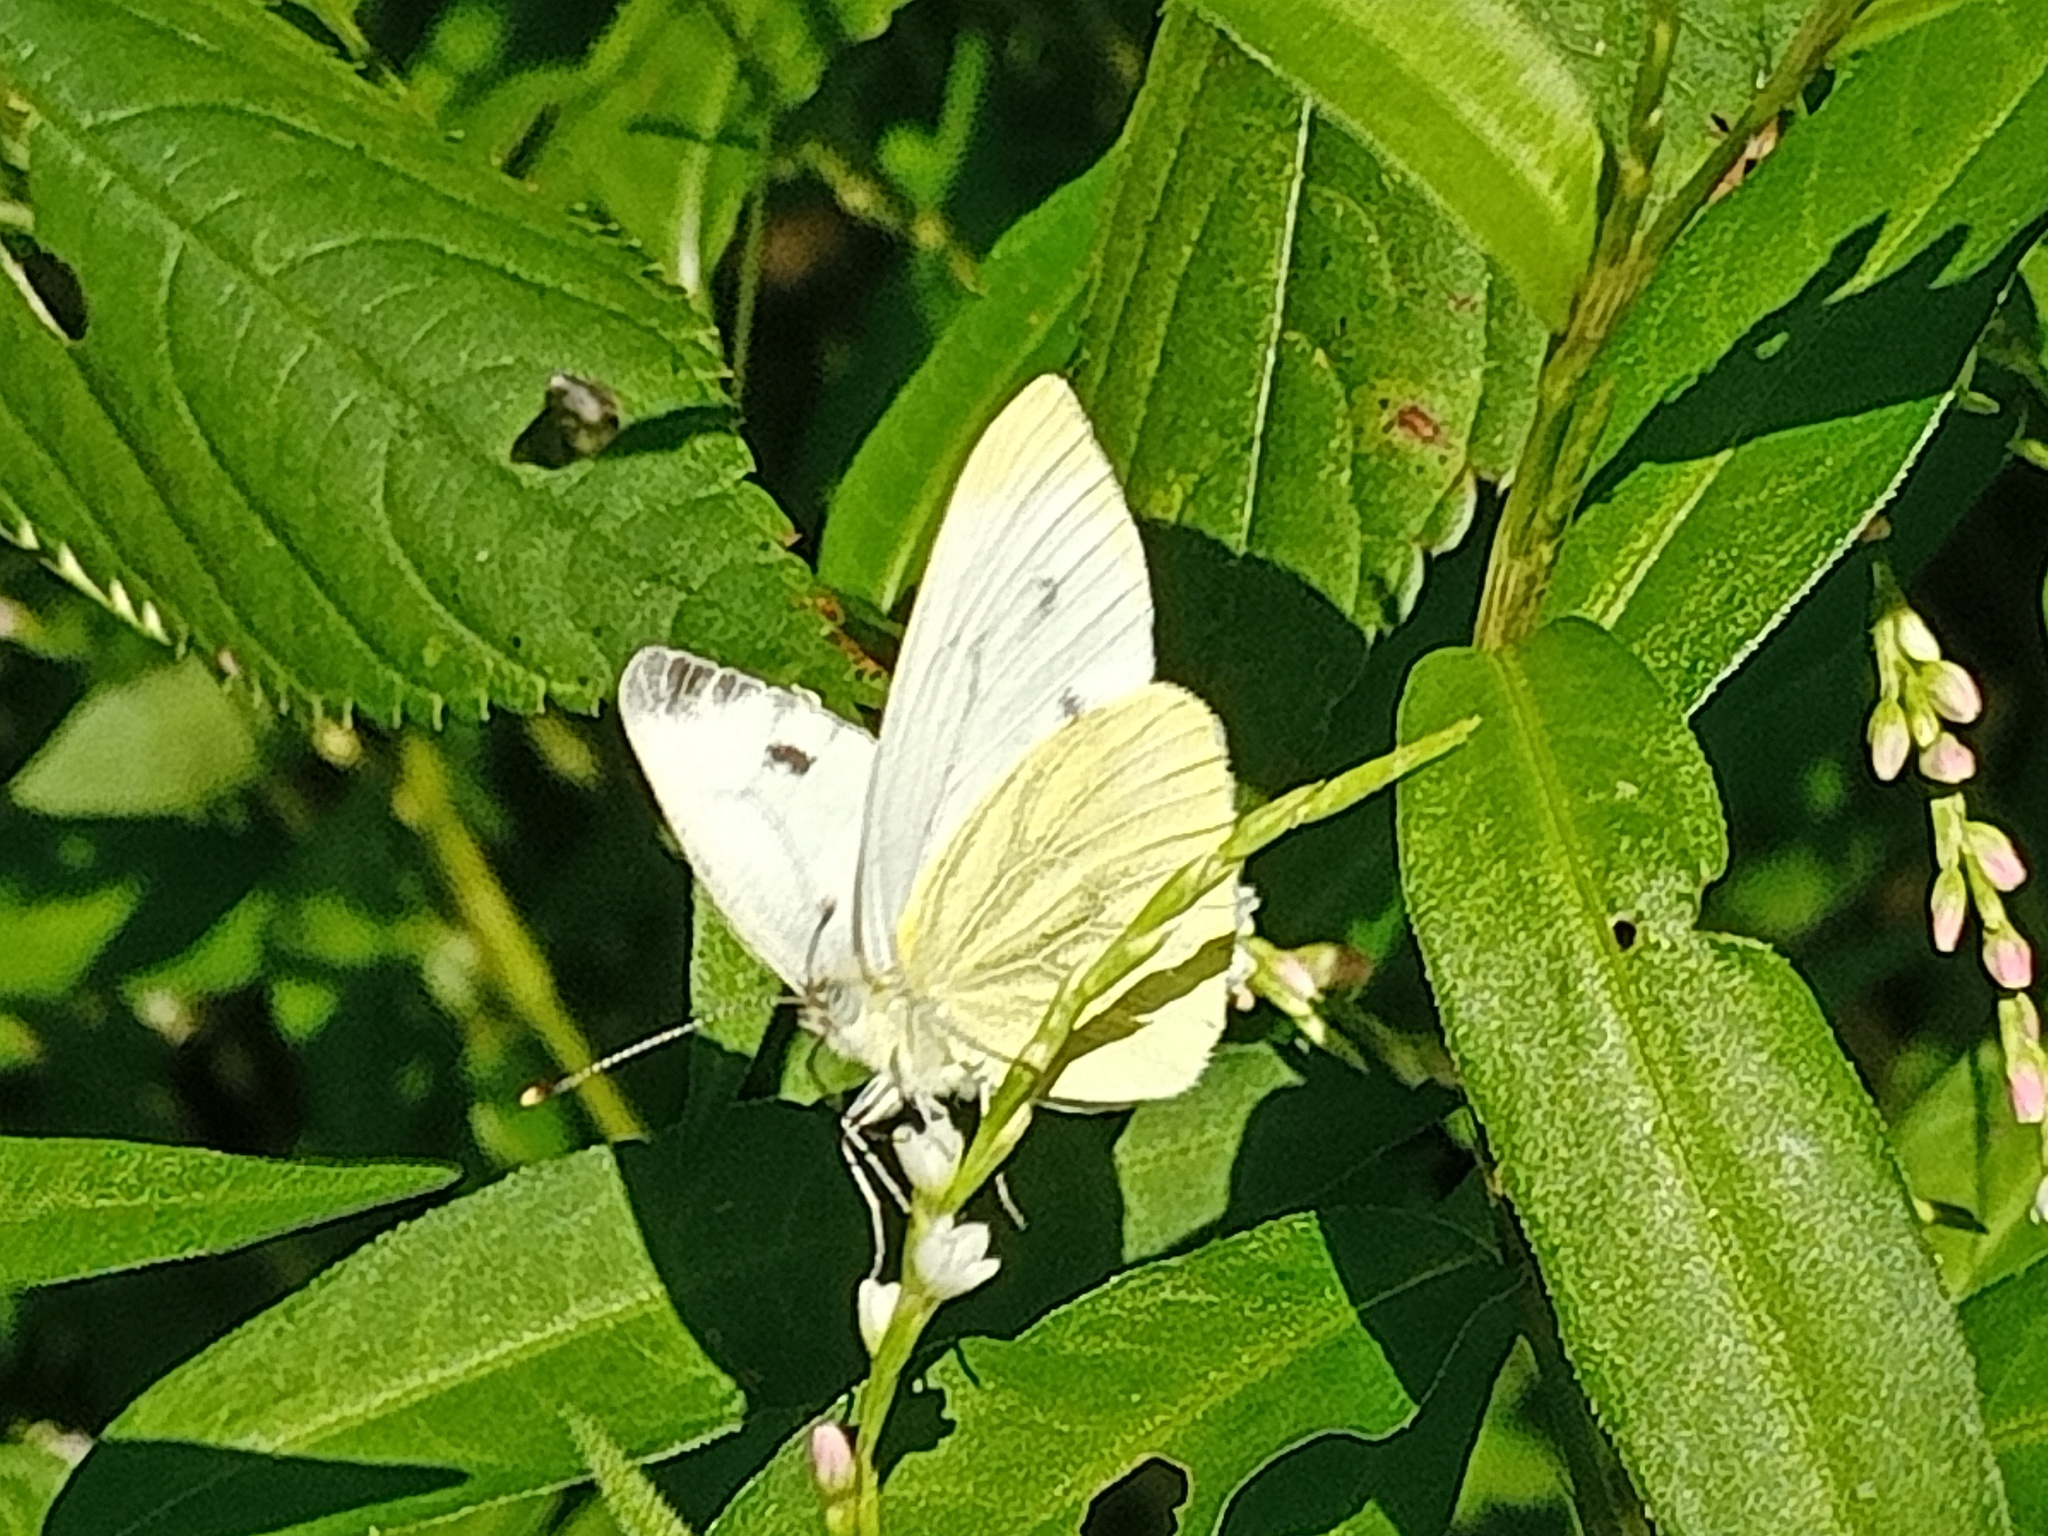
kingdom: Animalia
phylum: Arthropoda
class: Insecta
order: Lepidoptera
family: Pieridae
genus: Pieris
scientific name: Pieris napi
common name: Green-veined white
